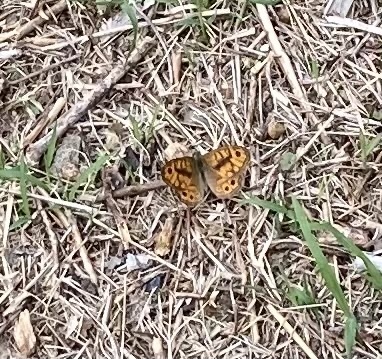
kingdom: Animalia
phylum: Arthropoda
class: Insecta
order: Lepidoptera
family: Nymphalidae
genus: Pararge
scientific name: Pararge Lasiommata megera
